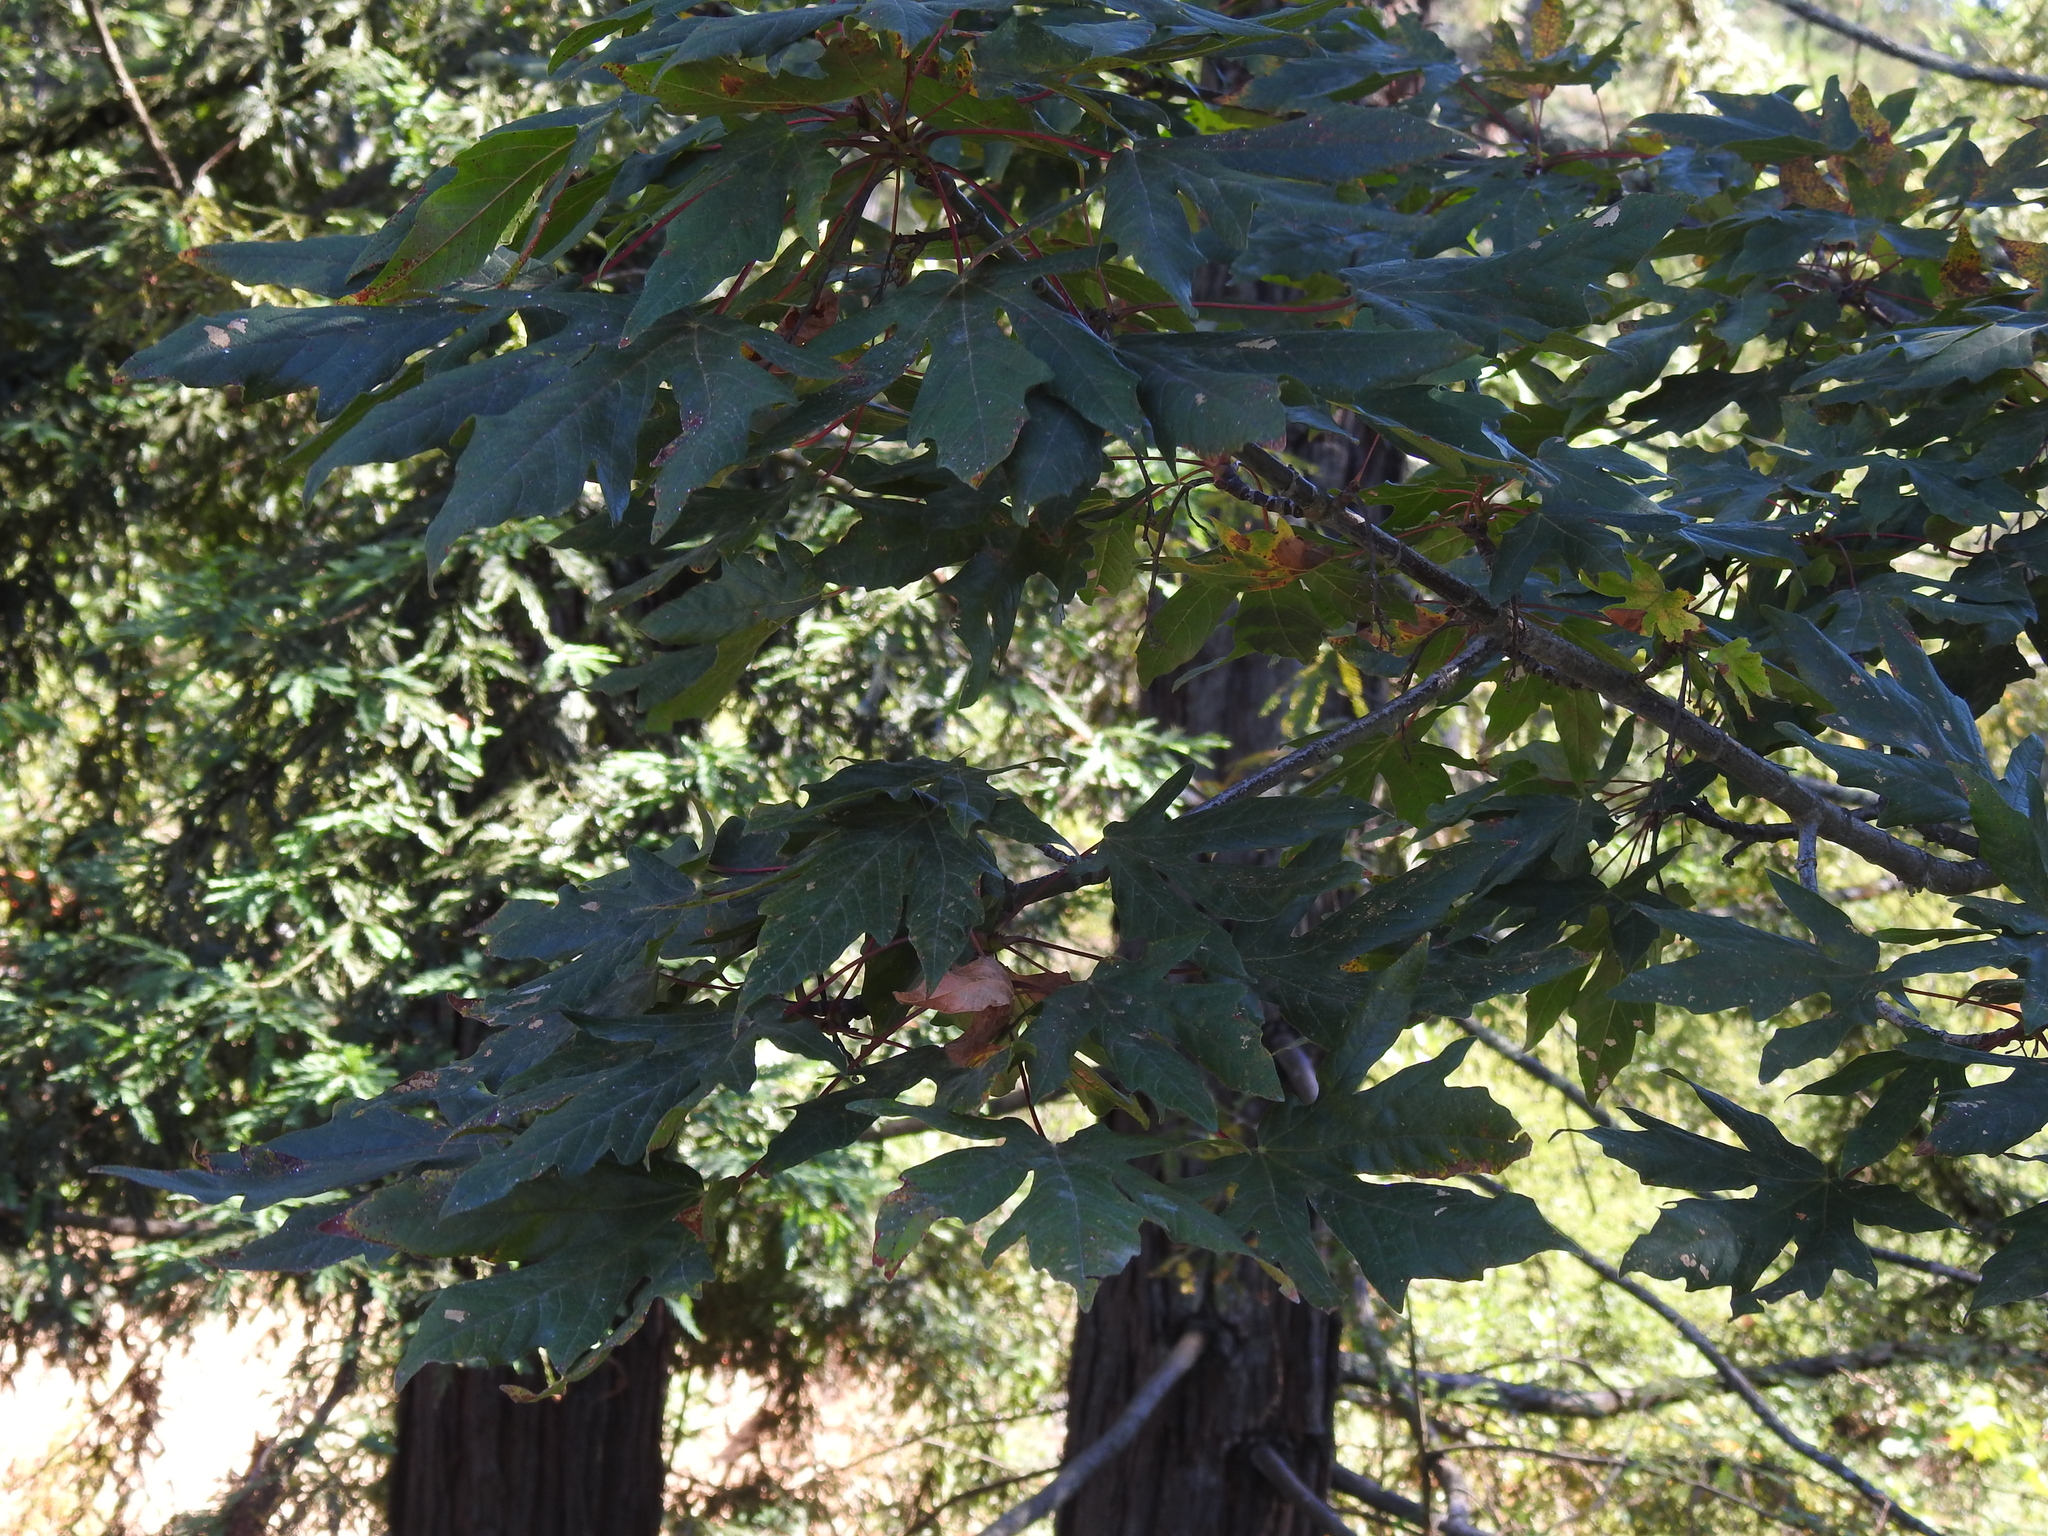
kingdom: Plantae
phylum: Tracheophyta
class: Magnoliopsida
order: Sapindales
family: Sapindaceae
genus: Acer
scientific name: Acer macrophyllum
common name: Oregon maple
